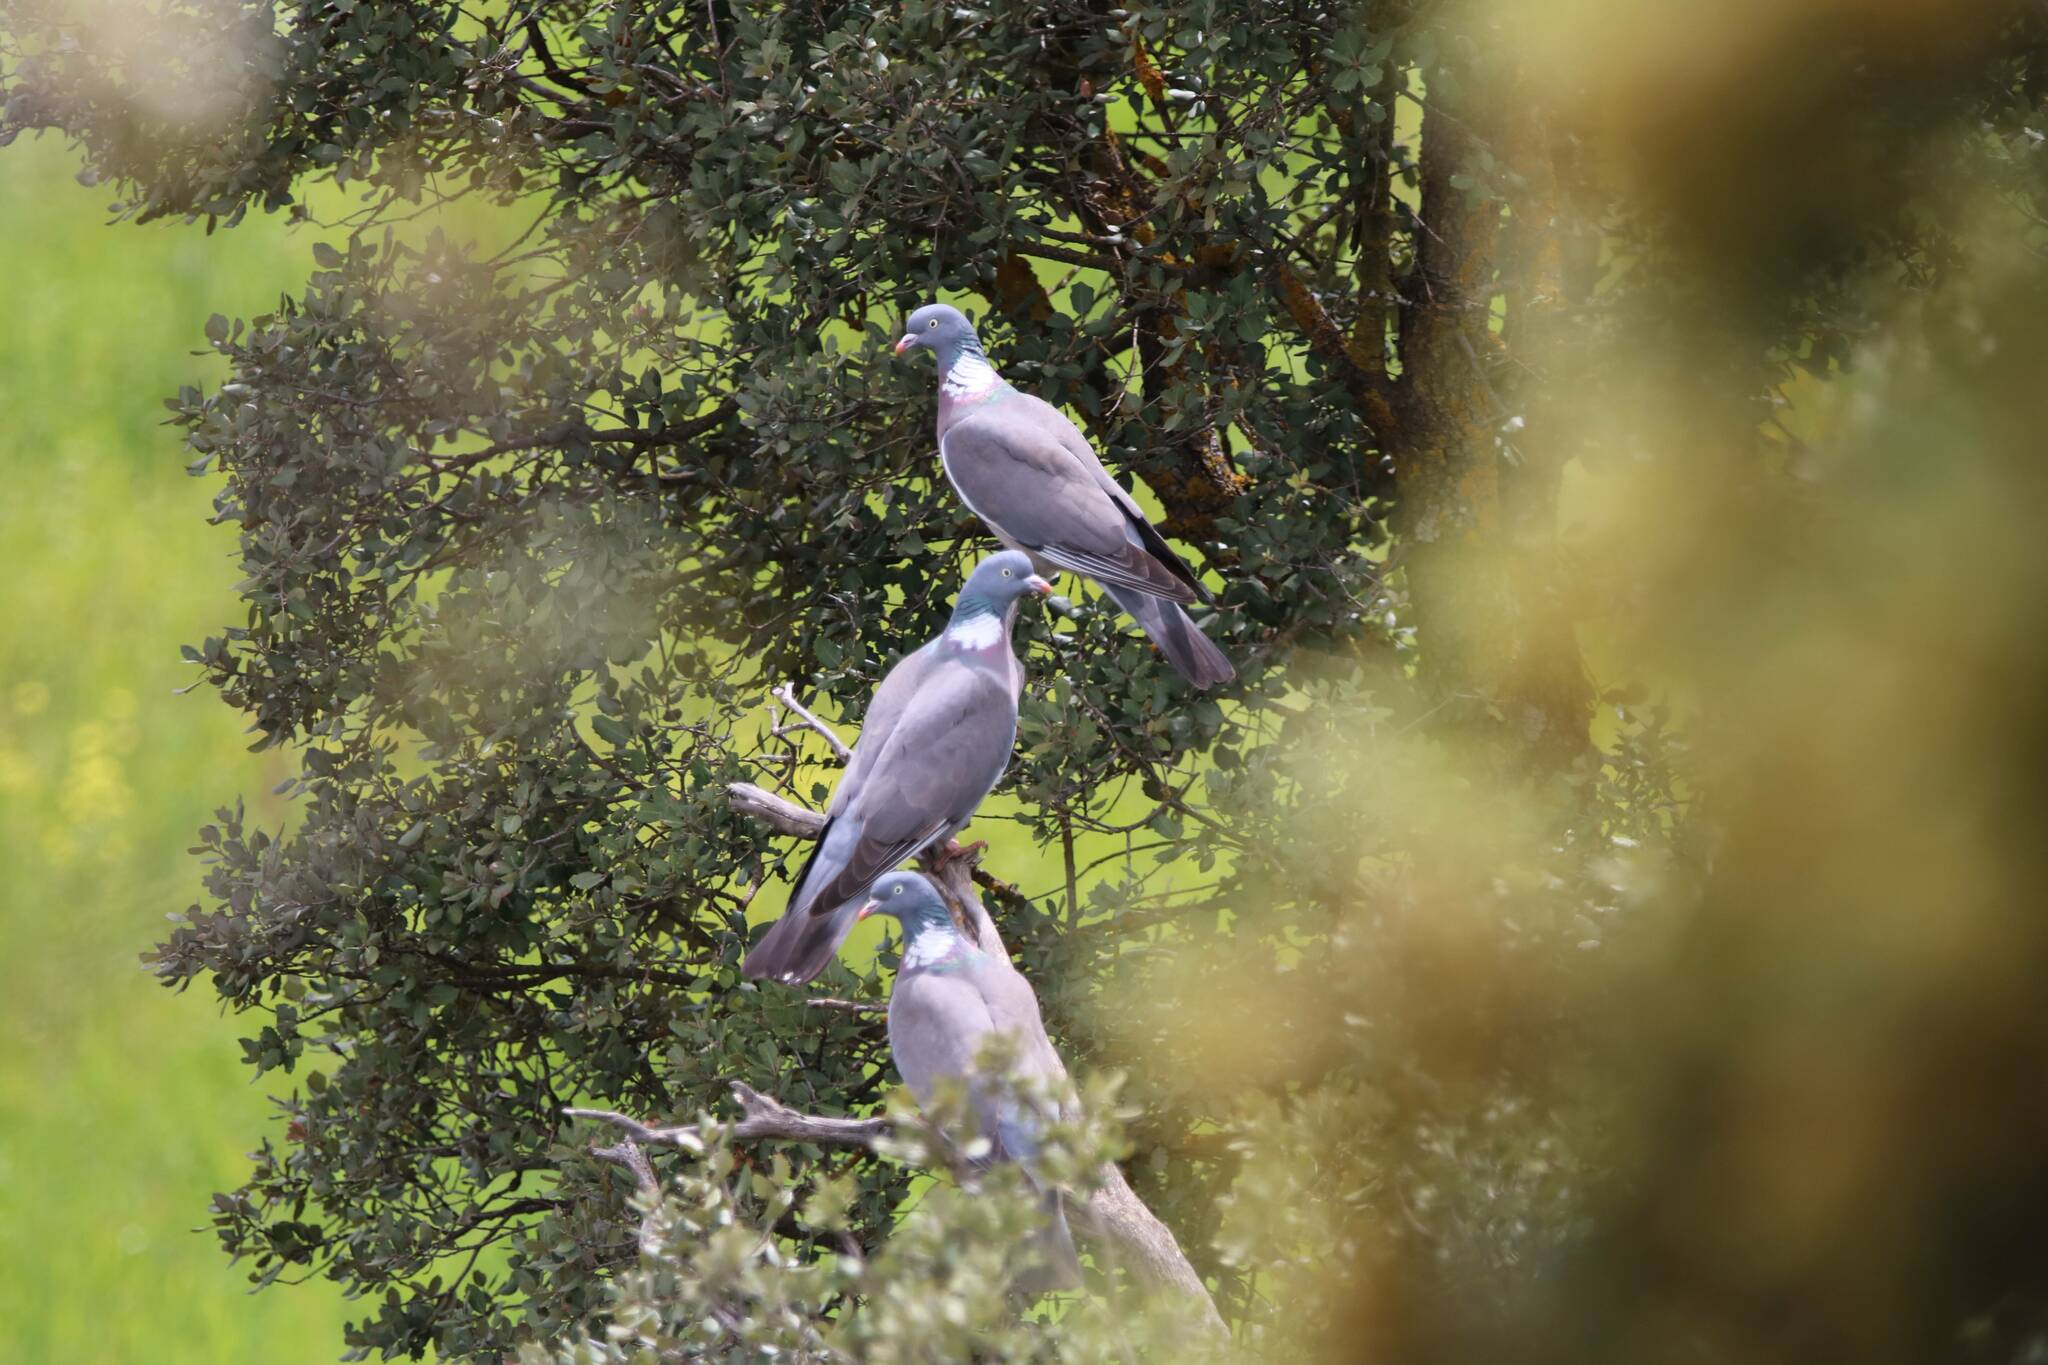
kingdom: Animalia
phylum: Chordata
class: Aves
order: Columbiformes
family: Columbidae
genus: Columba
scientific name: Columba palumbus
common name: Common wood pigeon
